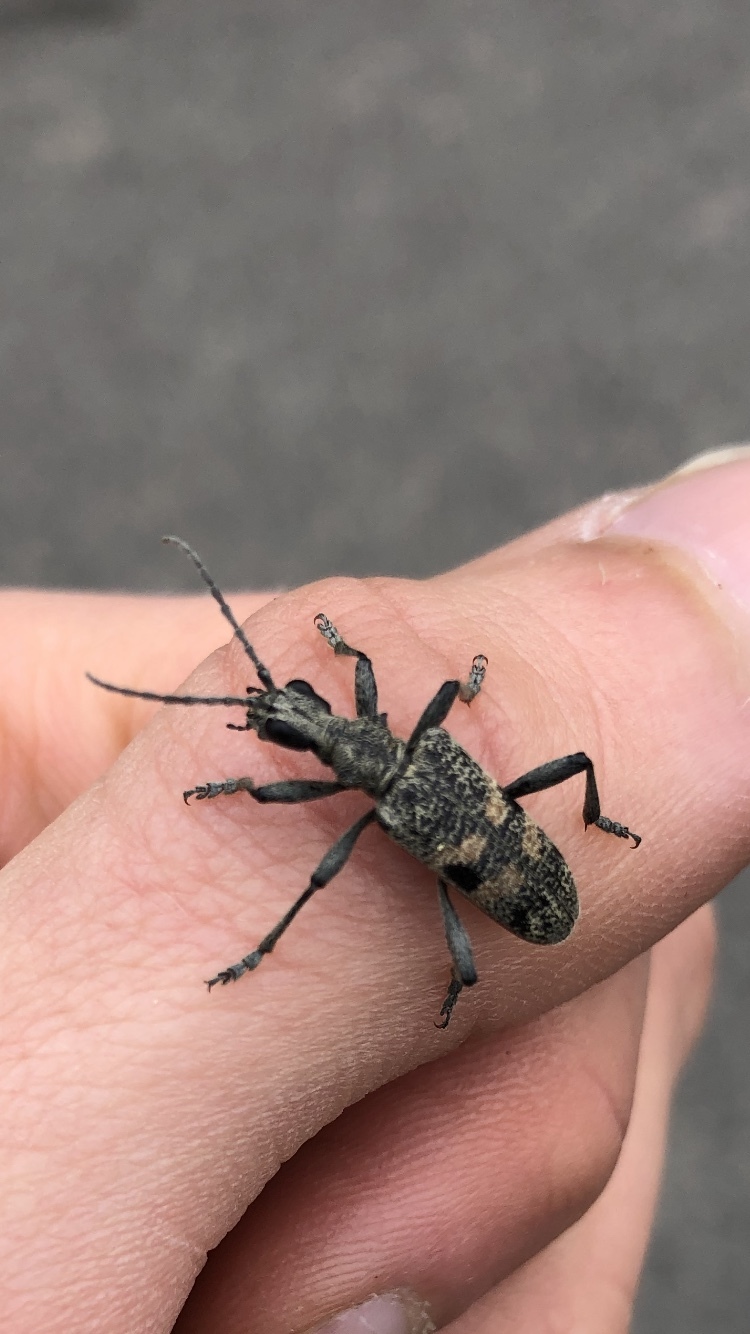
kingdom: Animalia
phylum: Arthropoda
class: Insecta
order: Coleoptera
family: Cerambycidae
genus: Rhagium
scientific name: Rhagium mordax
